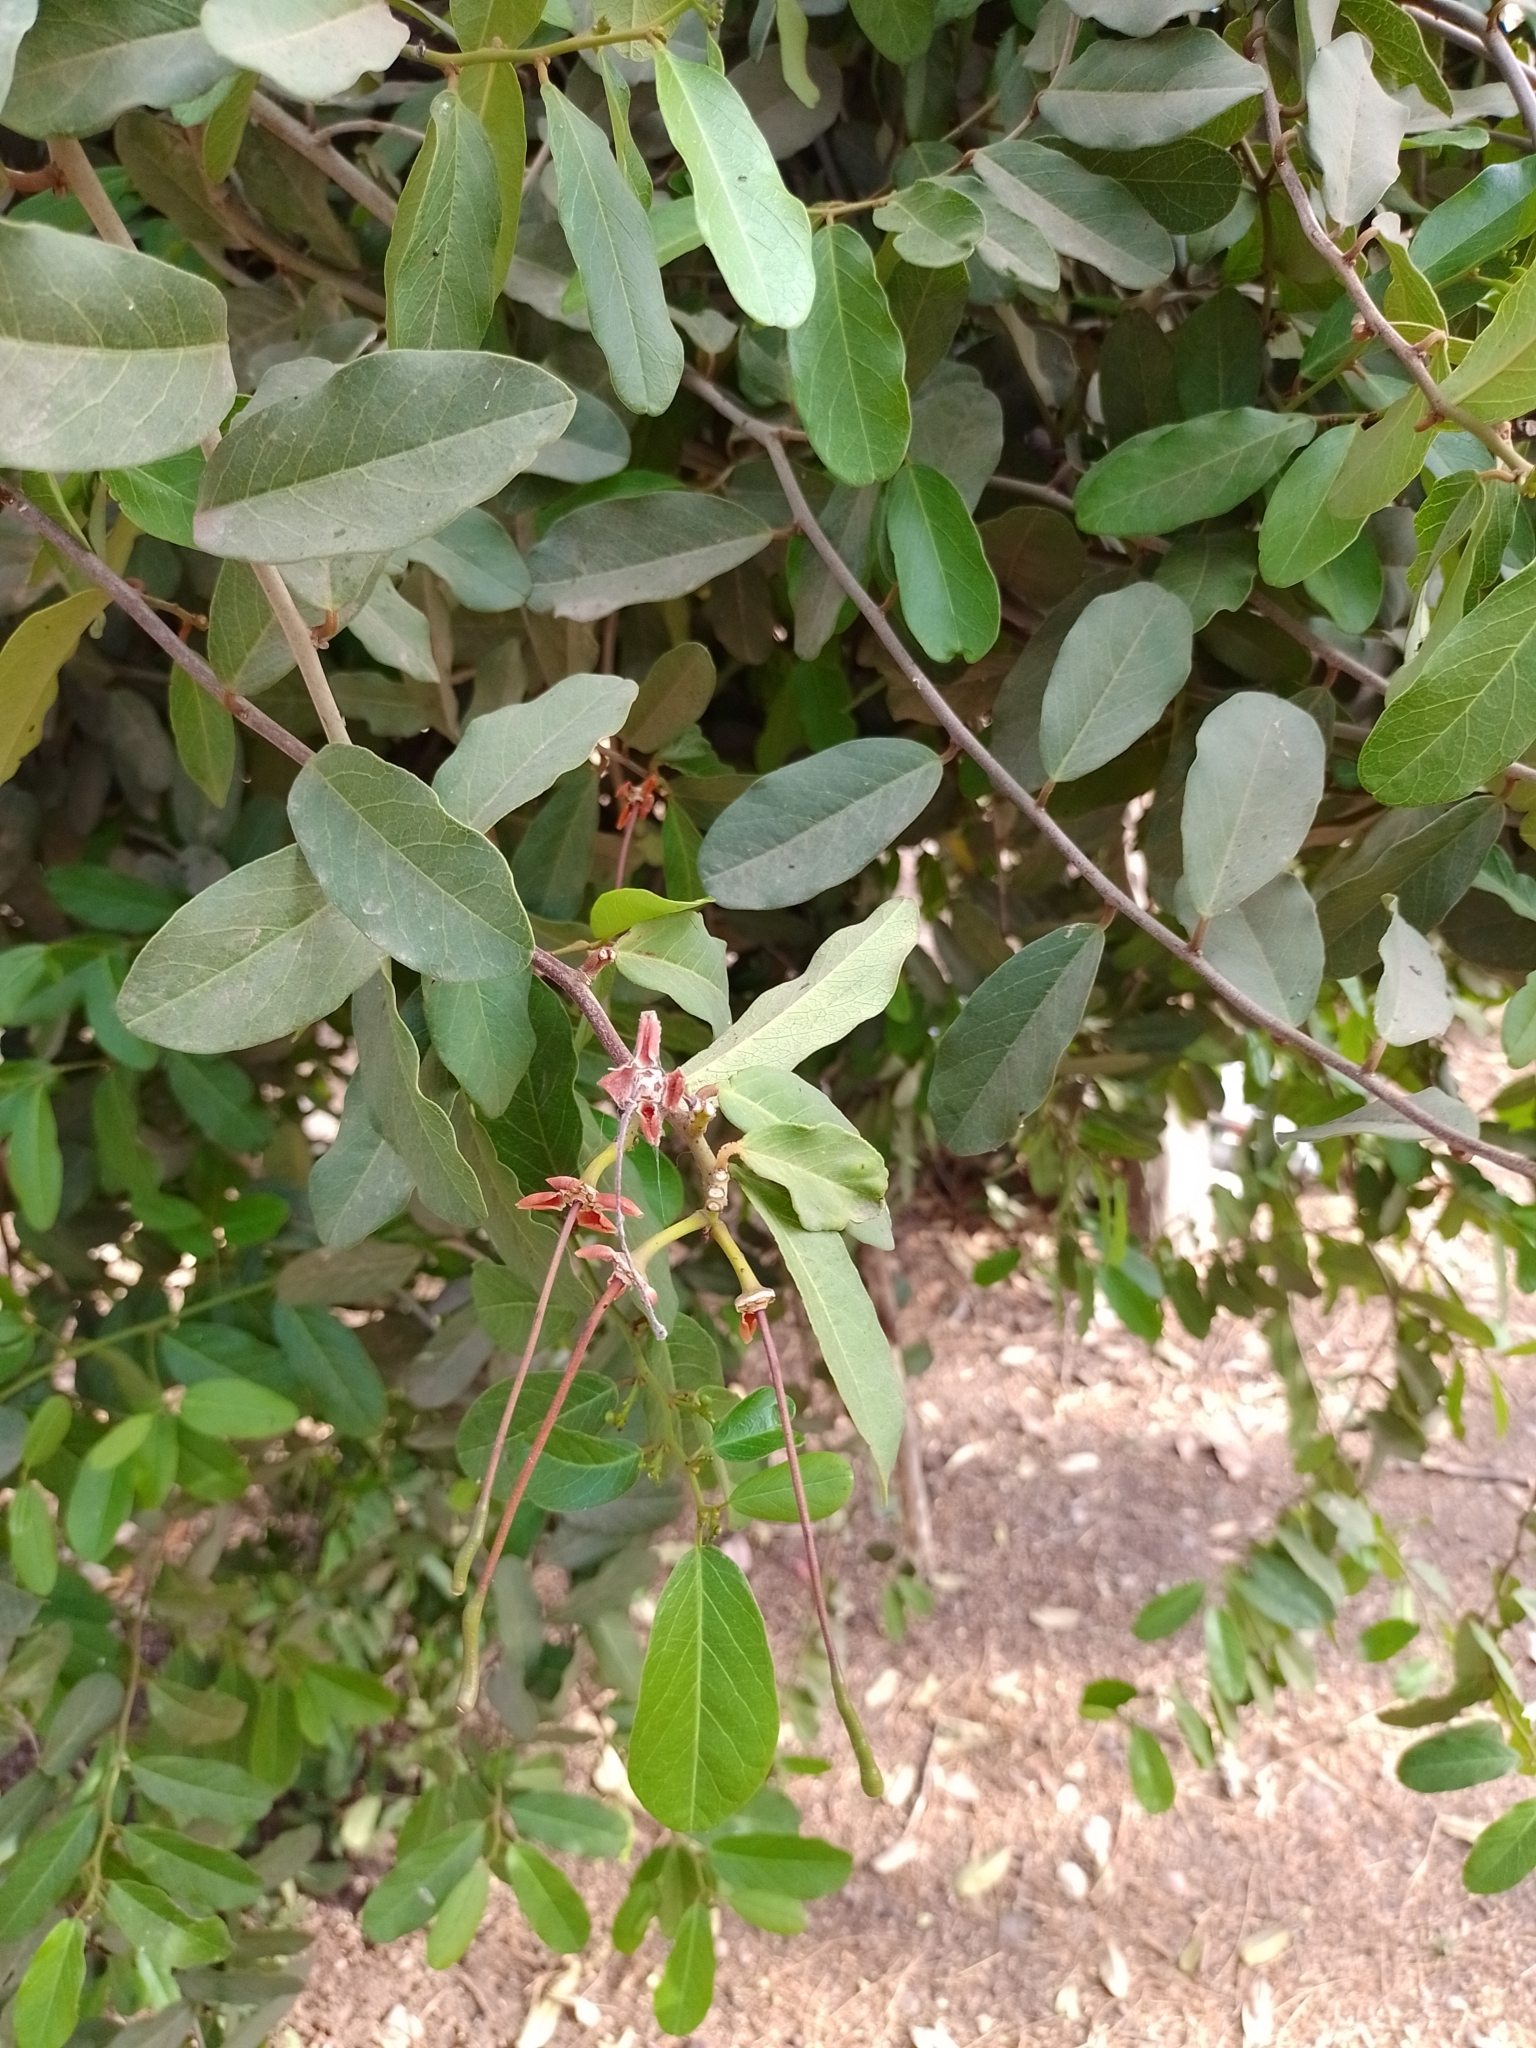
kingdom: Plantae
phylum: Tracheophyta
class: Magnoliopsida
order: Brassicales
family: Capparaceae
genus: Cynophalla
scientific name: Cynophalla flexuosa
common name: Capertree
